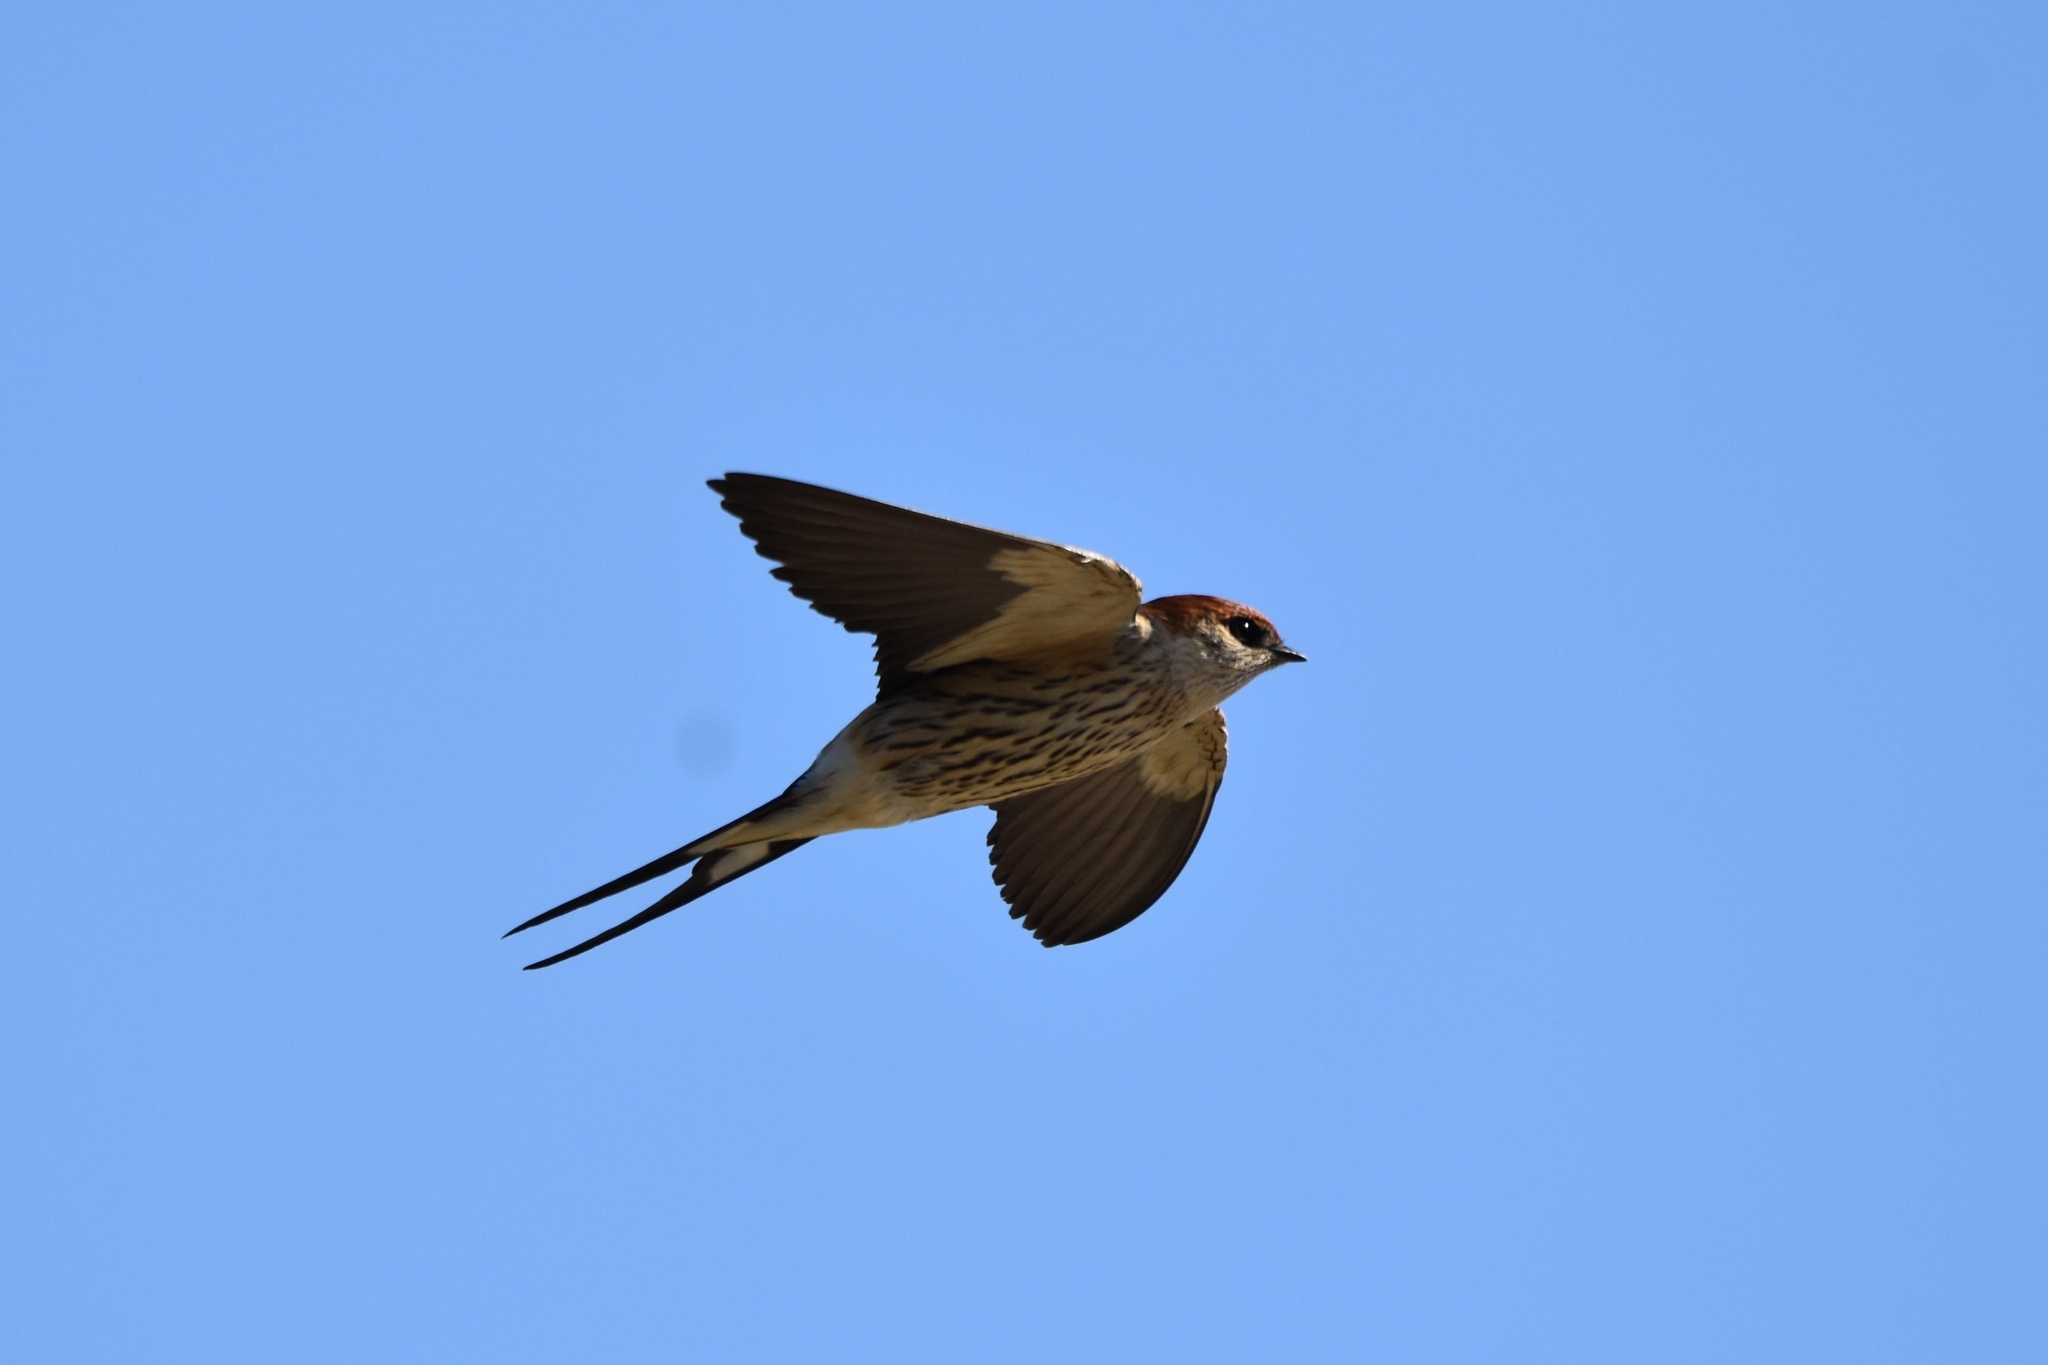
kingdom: Animalia
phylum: Chordata
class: Aves
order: Passeriformes
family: Hirundinidae
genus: Cecropis
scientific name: Cecropis cucullata
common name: Greater striped-swallow
